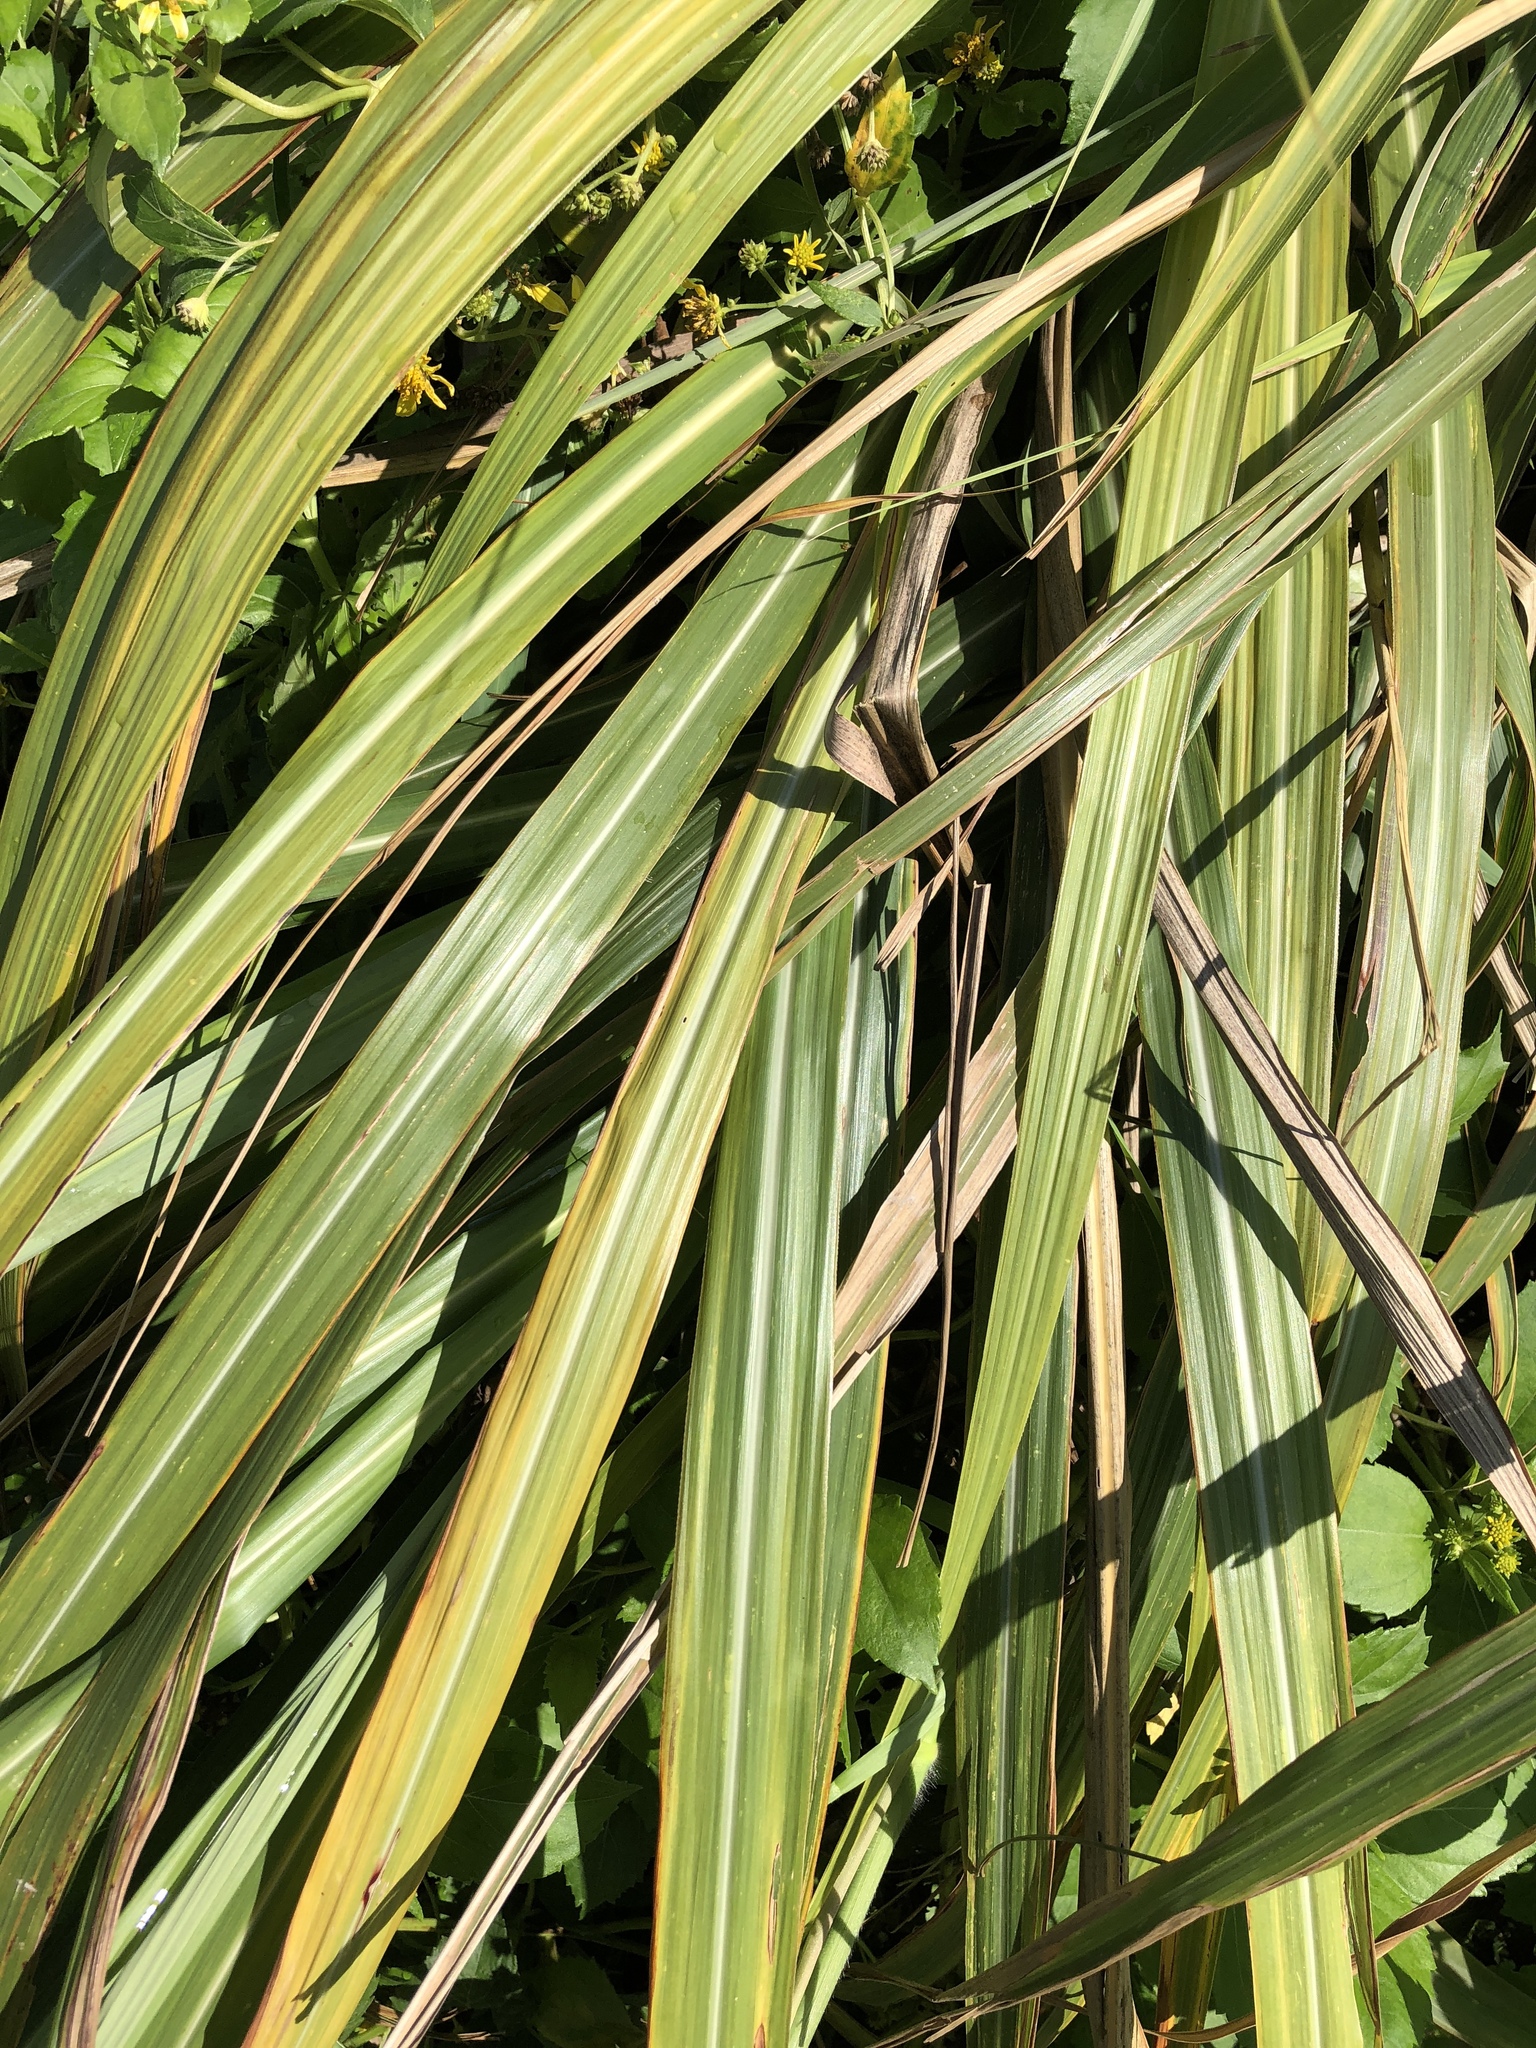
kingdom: Plantae
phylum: Tracheophyta
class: Liliopsida
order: Poales
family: Poaceae
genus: Miscanthus
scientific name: Miscanthus sinensis
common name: Chinese silvergrass
